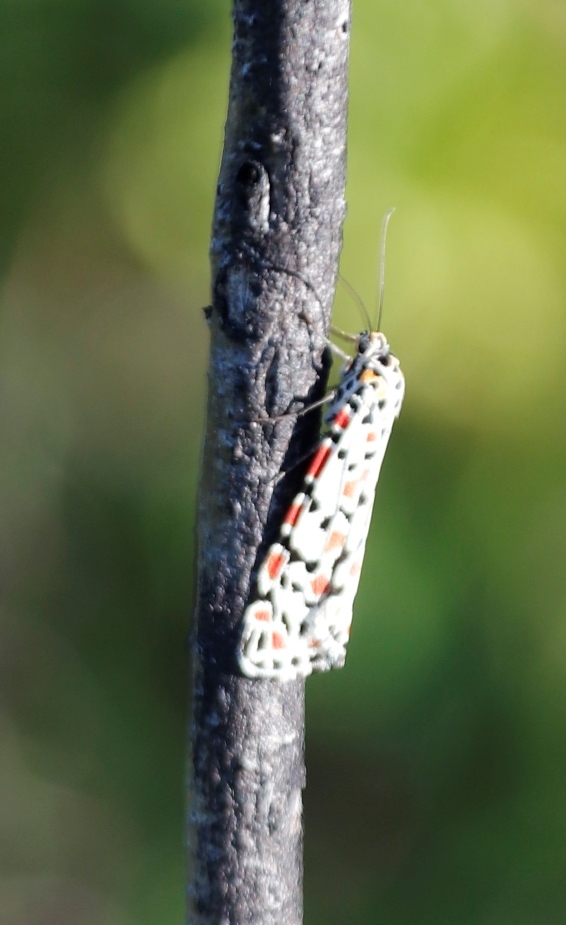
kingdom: Animalia
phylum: Arthropoda
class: Insecta
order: Lepidoptera
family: Erebidae
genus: Utetheisa
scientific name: Utetheisa pulchella
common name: Crimson speckled
